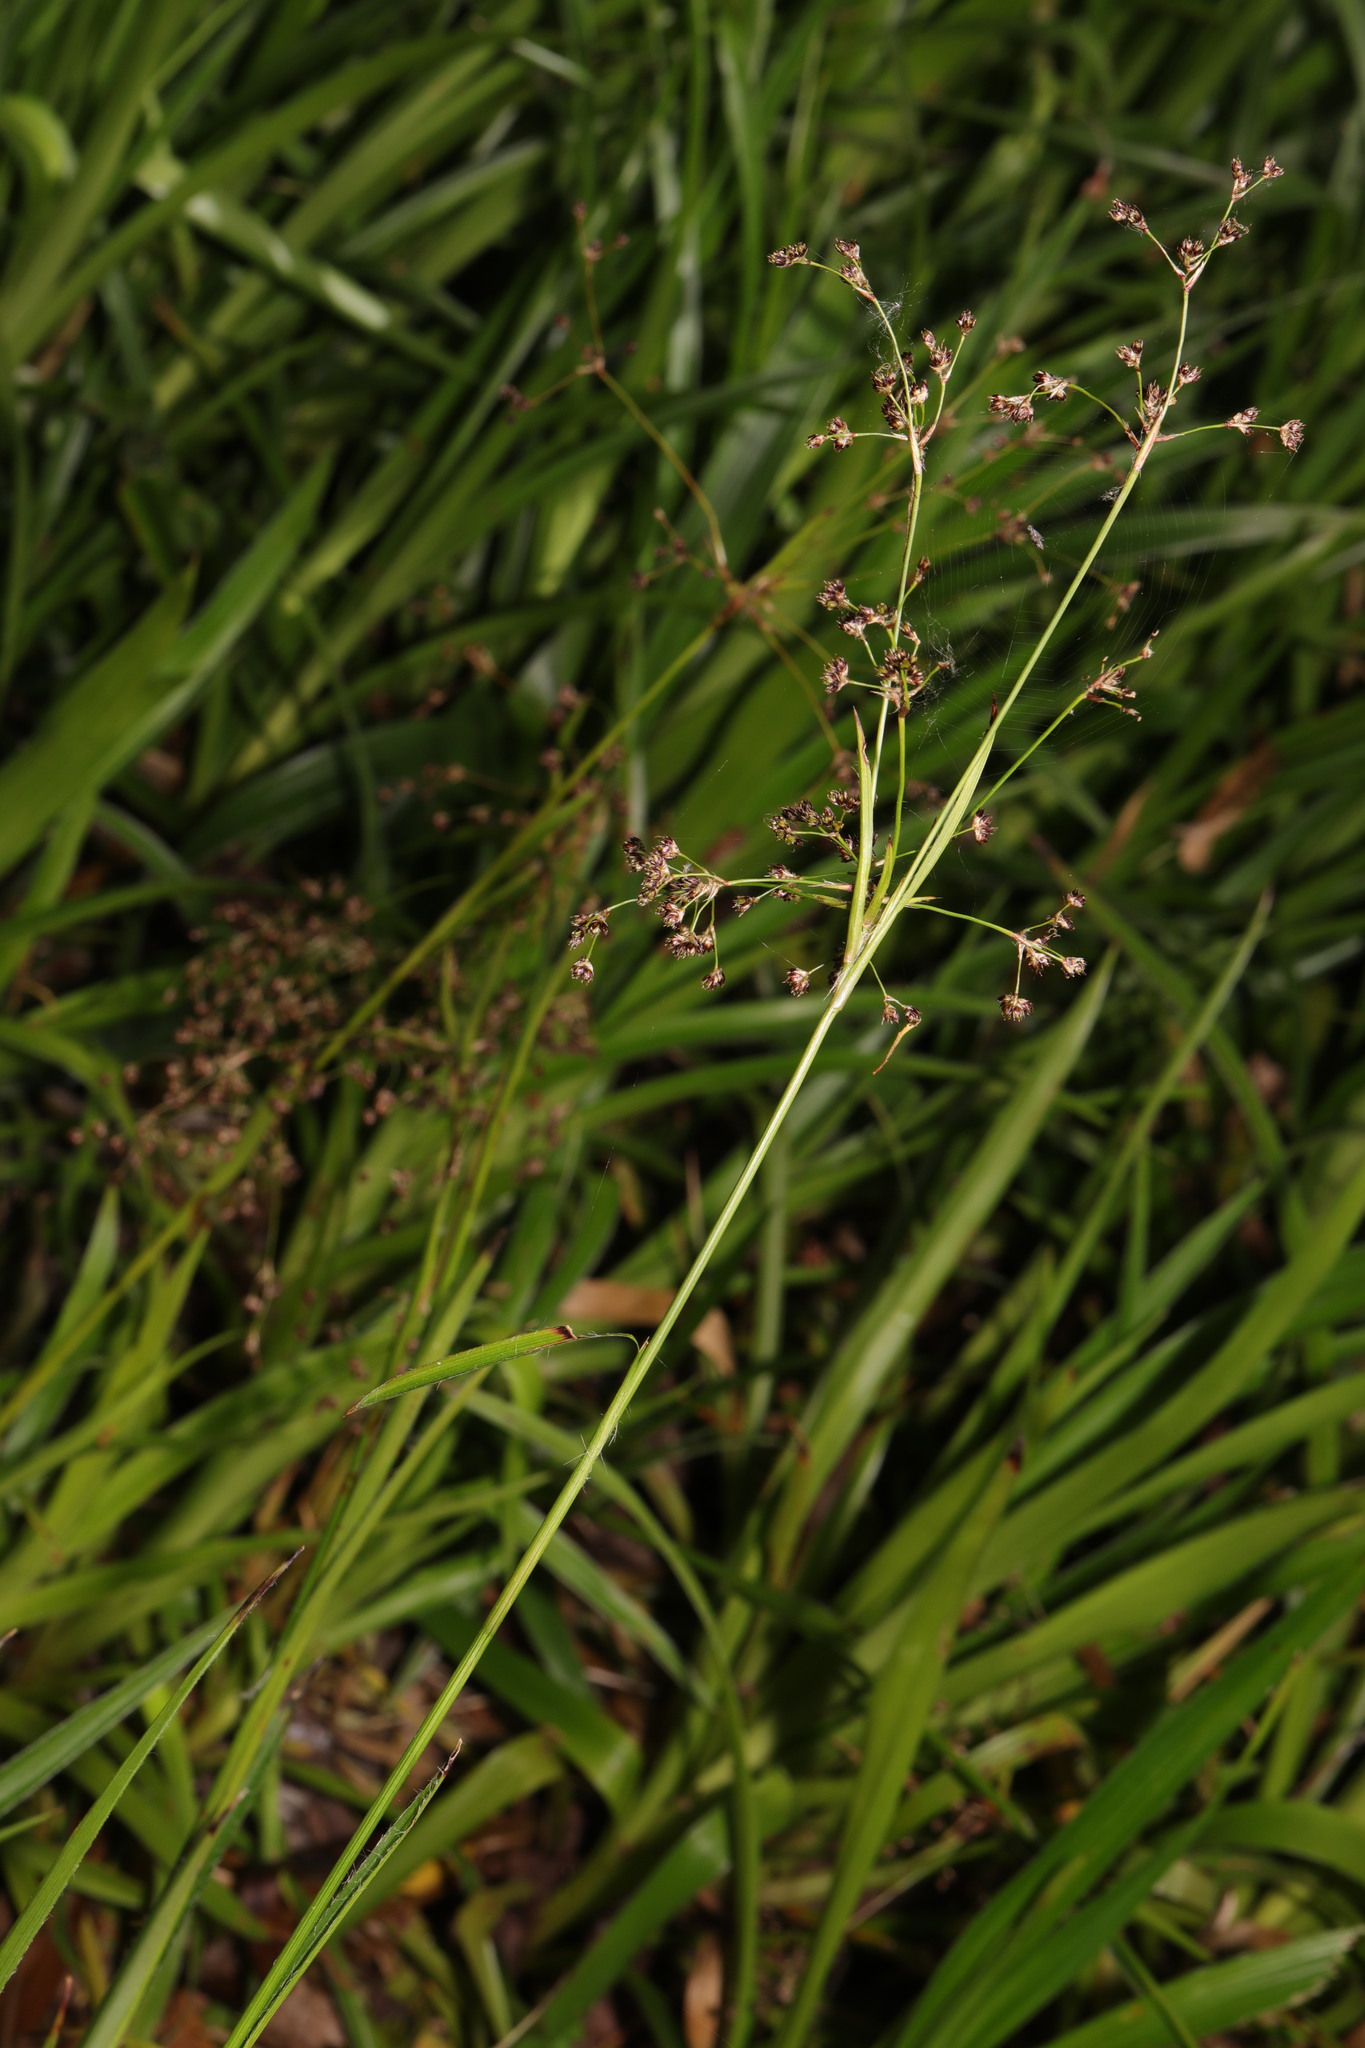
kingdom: Plantae
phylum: Tracheophyta
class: Liliopsida
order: Poales
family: Juncaceae
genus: Luzula
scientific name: Luzula sylvatica
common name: Great wood-rush
